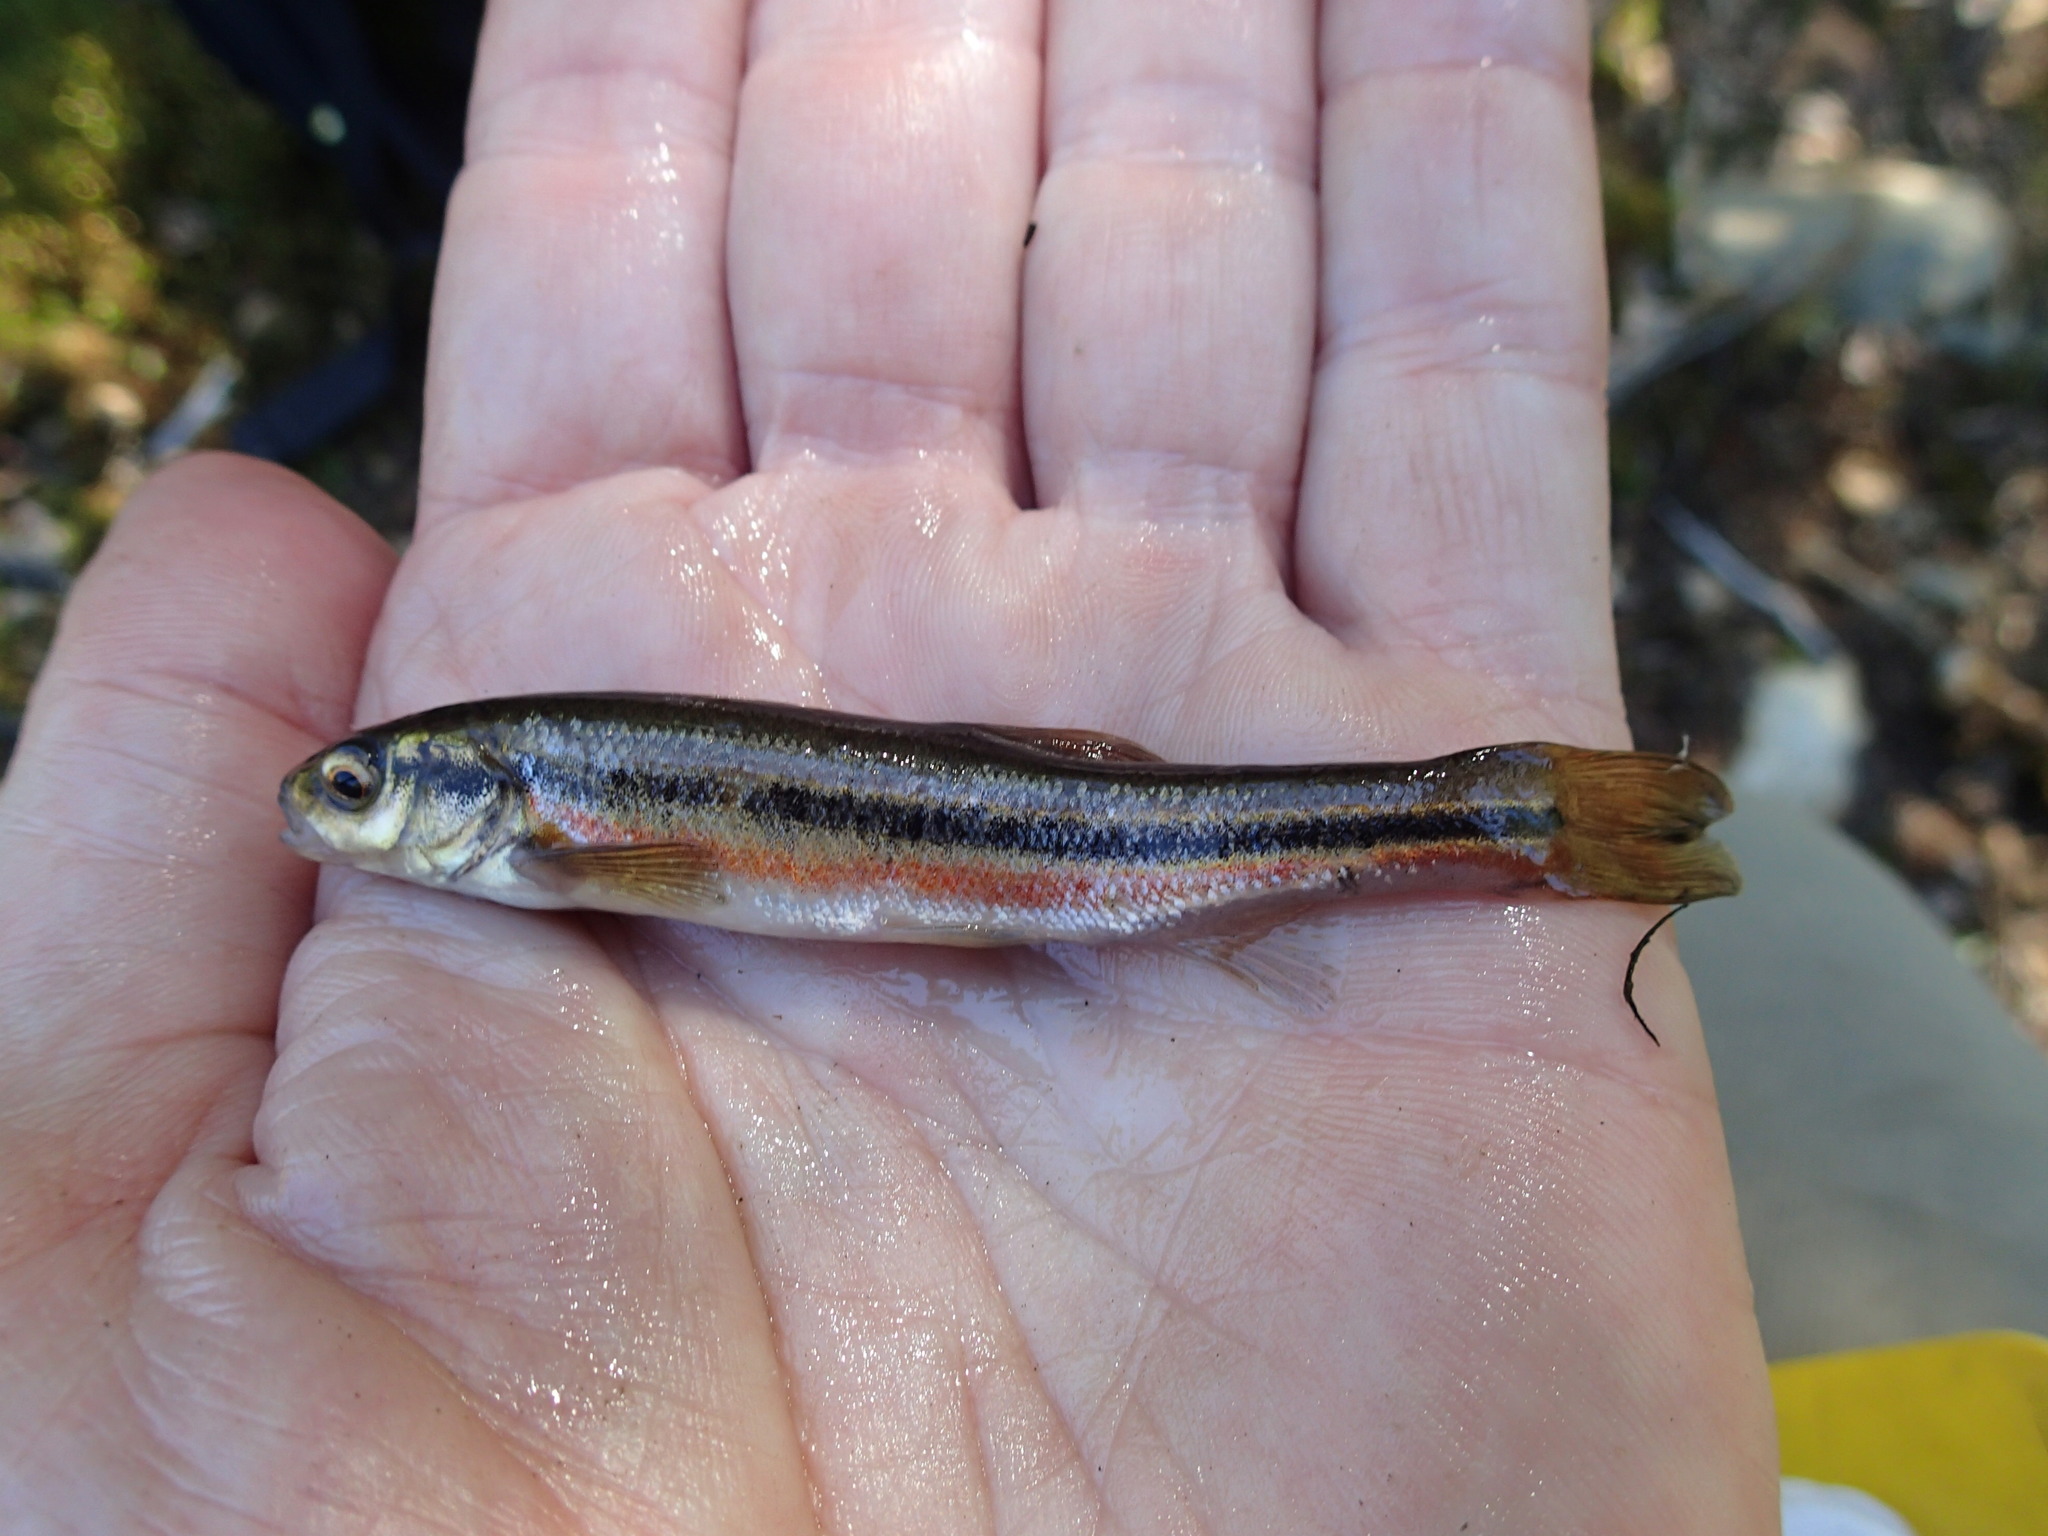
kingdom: Animalia
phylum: Chordata
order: Cypriniformes
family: Cyprinidae
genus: Margariscus
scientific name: Margariscus nachtriebi
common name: Northern pearl dace
